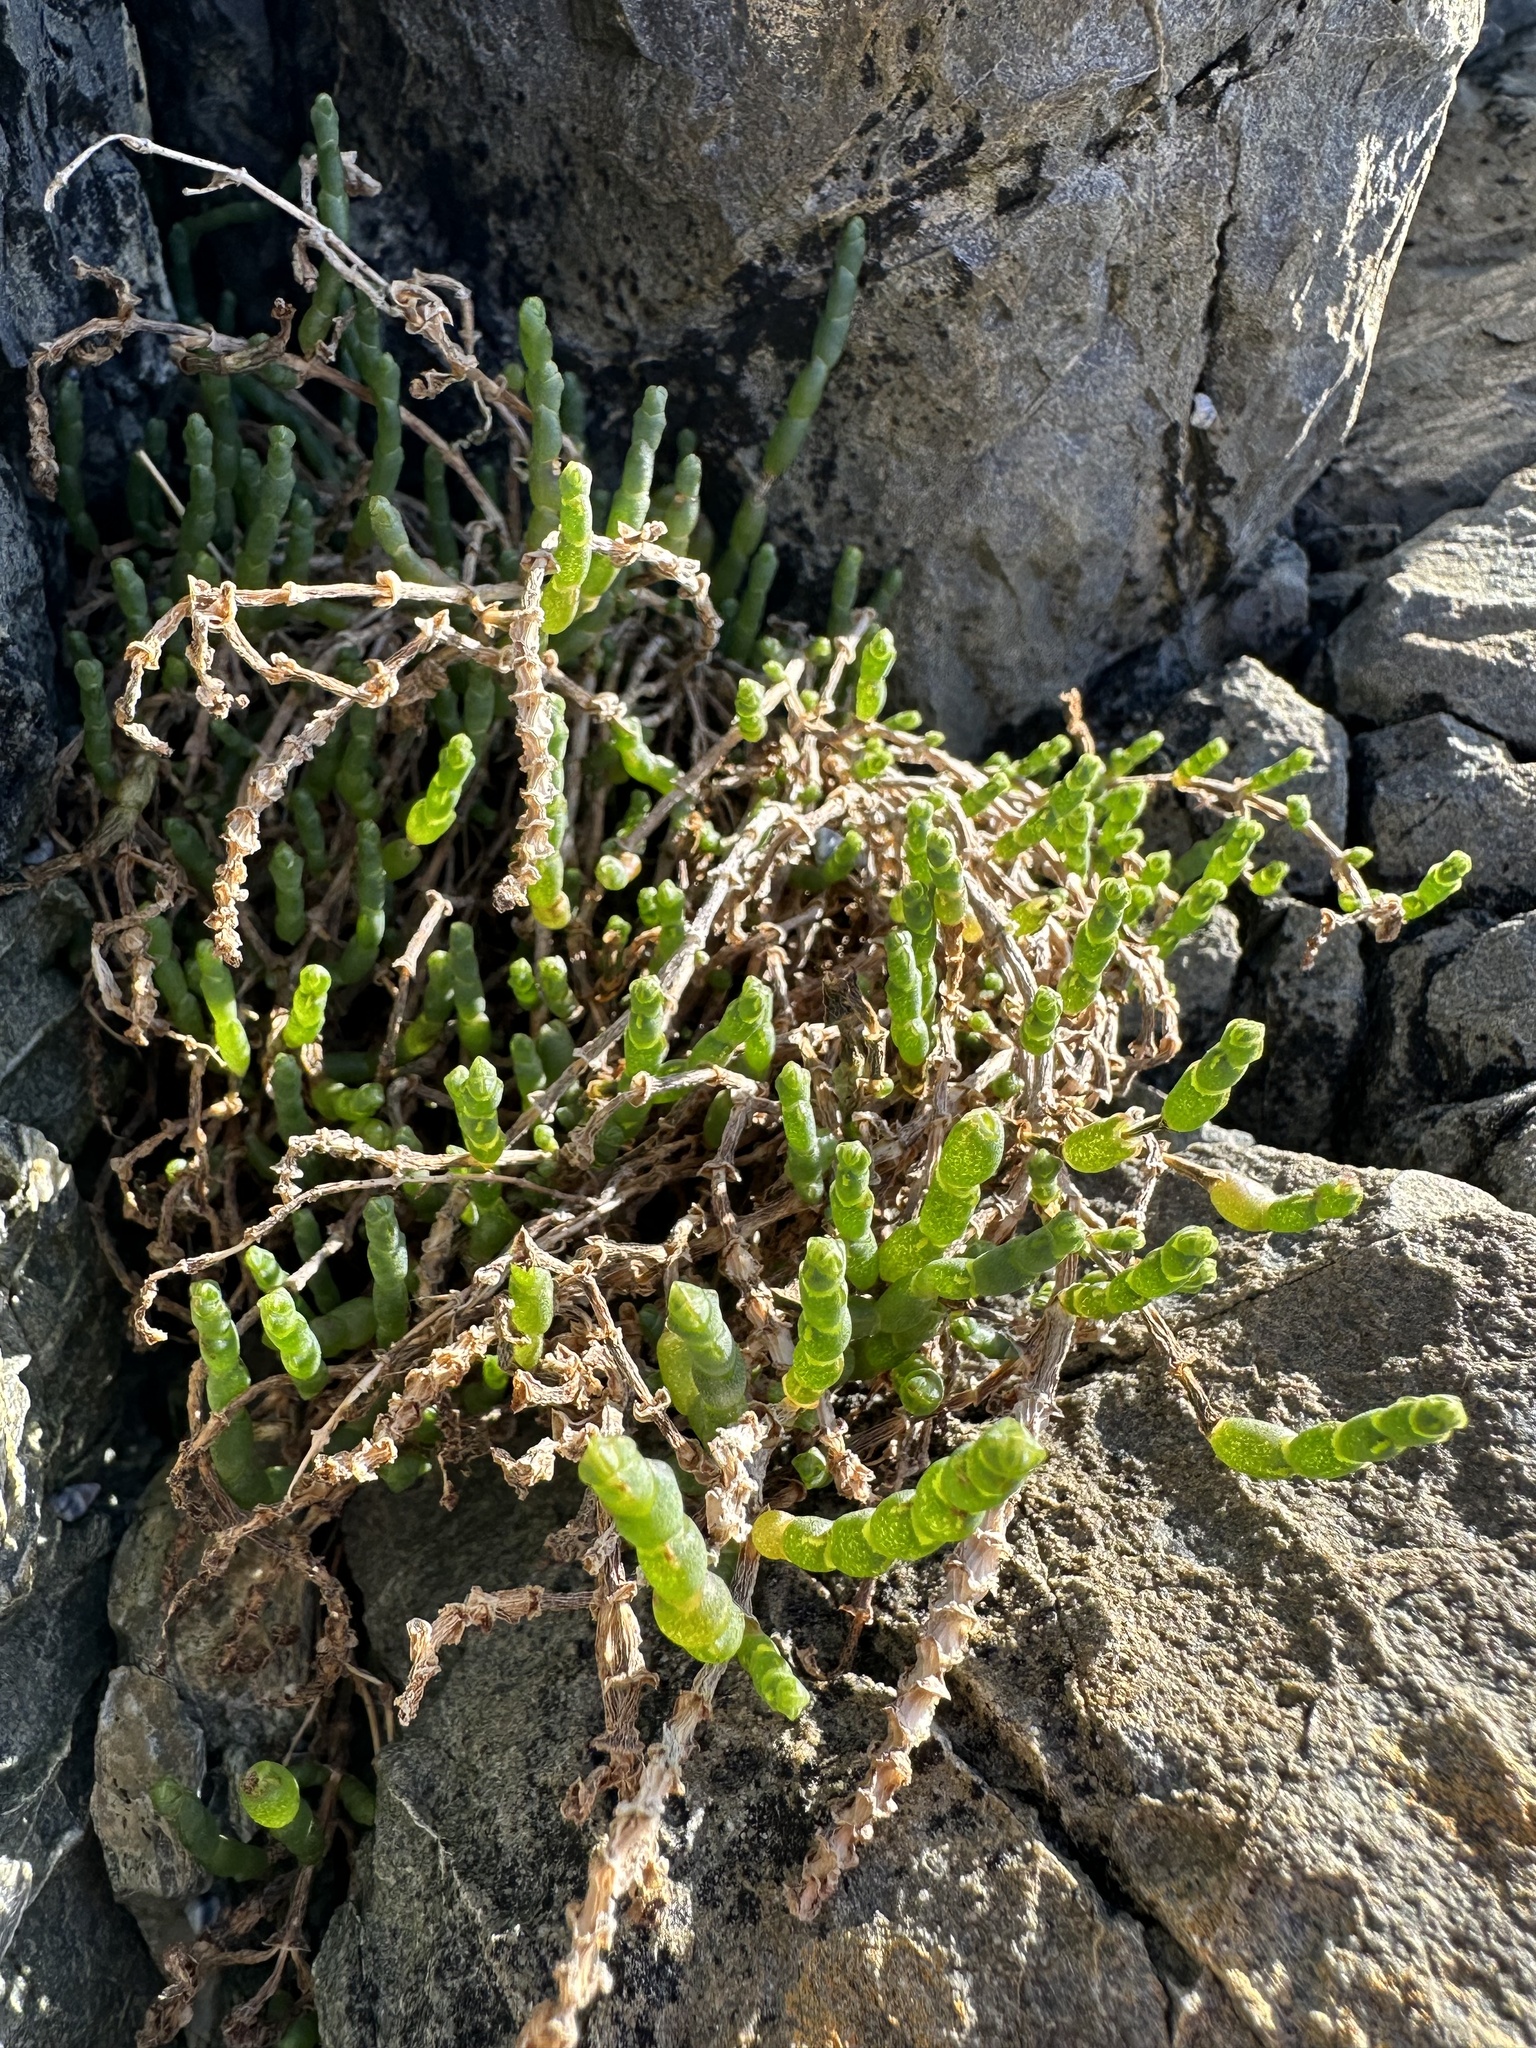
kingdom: Plantae
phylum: Tracheophyta
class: Magnoliopsida
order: Caryophyllales
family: Amaranthaceae
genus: Salicornia
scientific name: Salicornia quinqueflora
